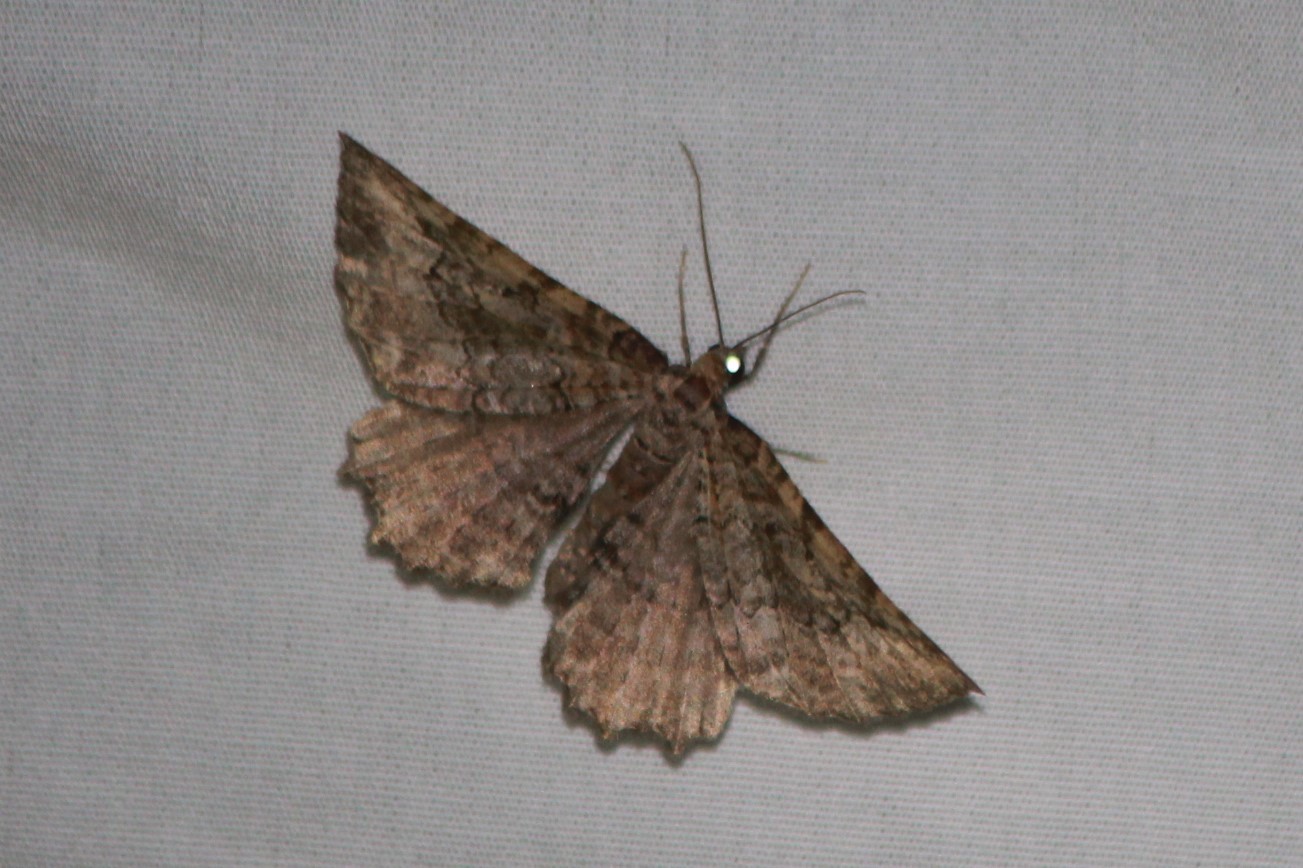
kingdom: Animalia
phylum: Arthropoda
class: Insecta
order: Lepidoptera
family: Geometridae
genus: Rheumaptera
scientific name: Rheumaptera
